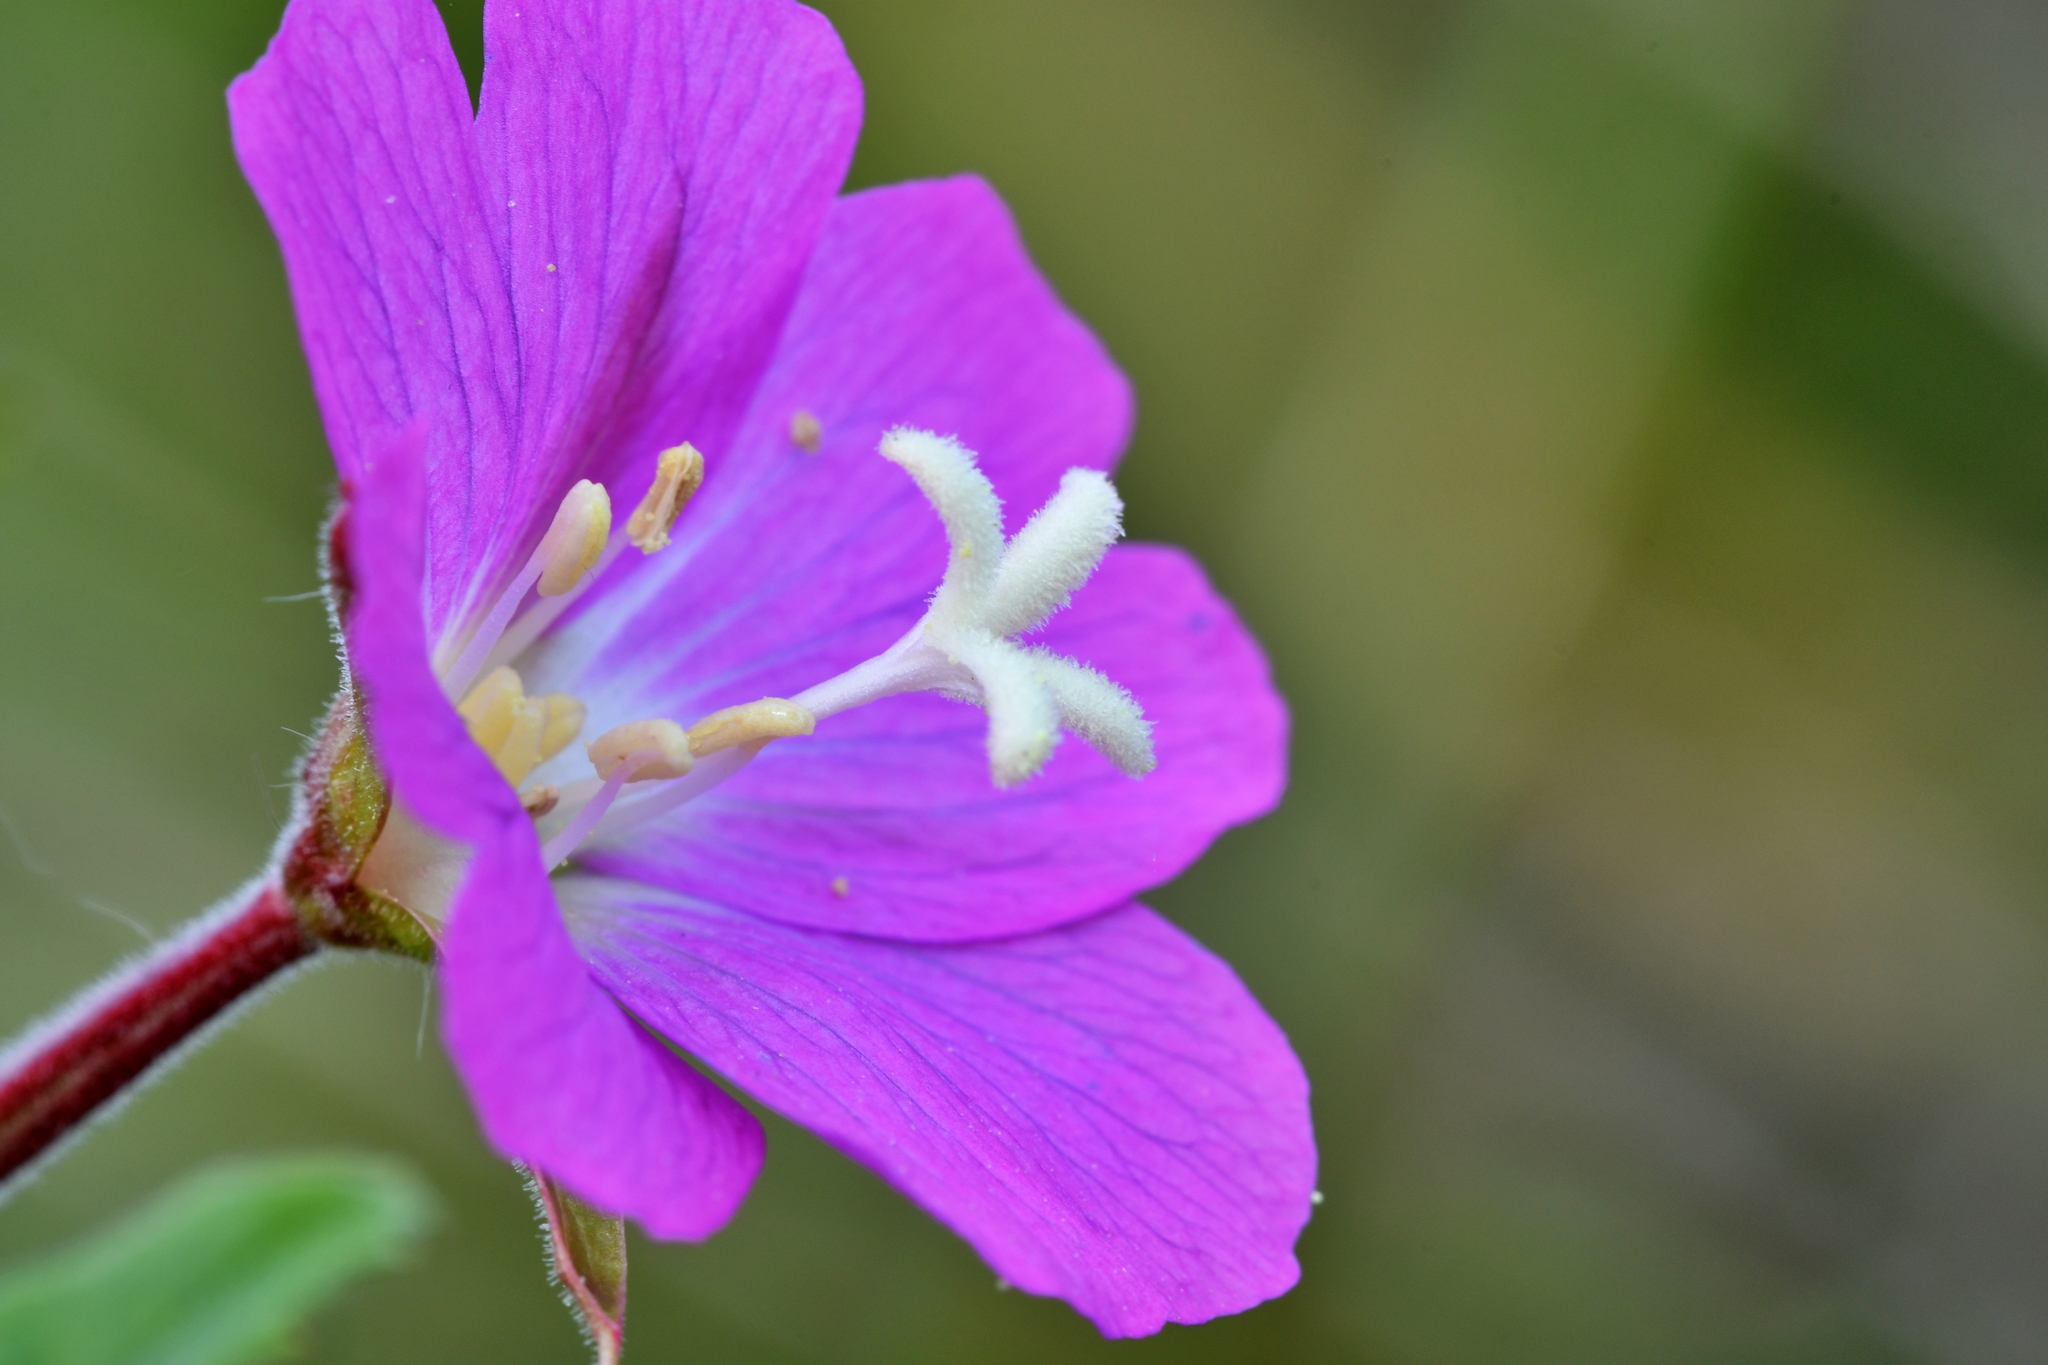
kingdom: Plantae
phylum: Tracheophyta
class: Magnoliopsida
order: Myrtales
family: Onagraceae
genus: Epilobium
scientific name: Epilobium hirsutum
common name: Great willowherb
